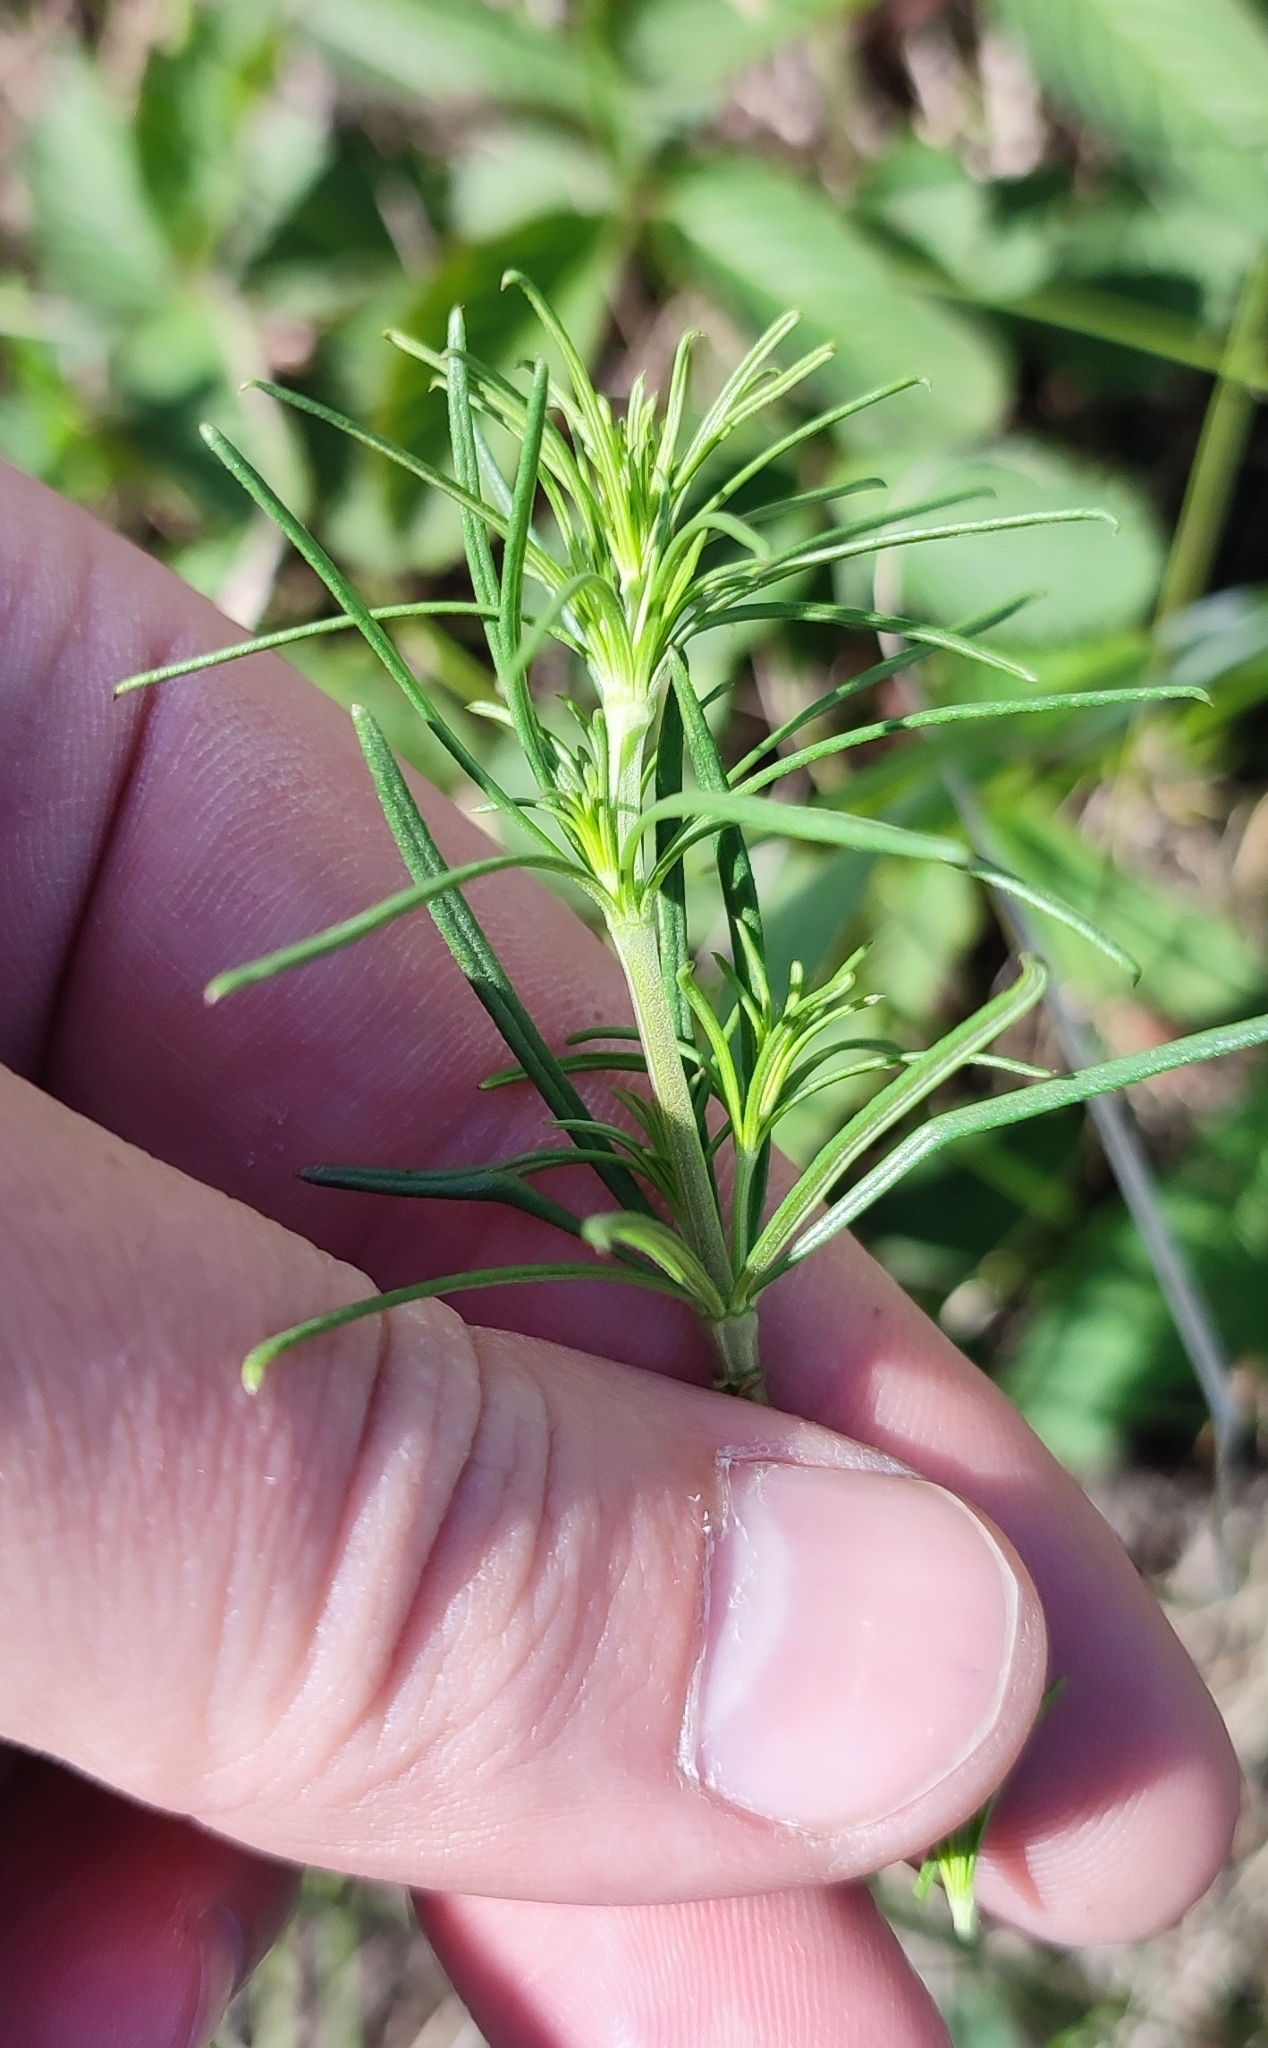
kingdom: Plantae
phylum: Tracheophyta
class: Magnoliopsida
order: Gentianales
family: Rubiaceae
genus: Galium
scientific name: Galium verum
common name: Lady's bedstraw
